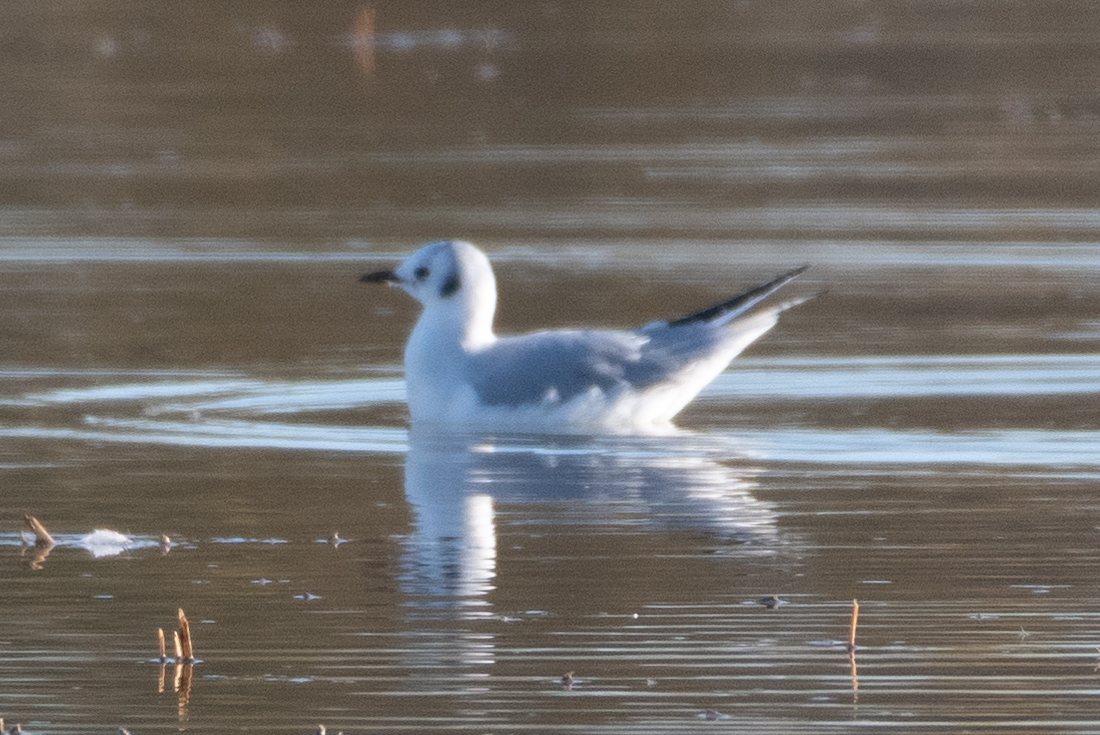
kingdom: Animalia
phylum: Chordata
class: Aves
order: Charadriiformes
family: Laridae
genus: Chroicocephalus
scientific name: Chroicocephalus philadelphia
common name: Bonaparte's gull
